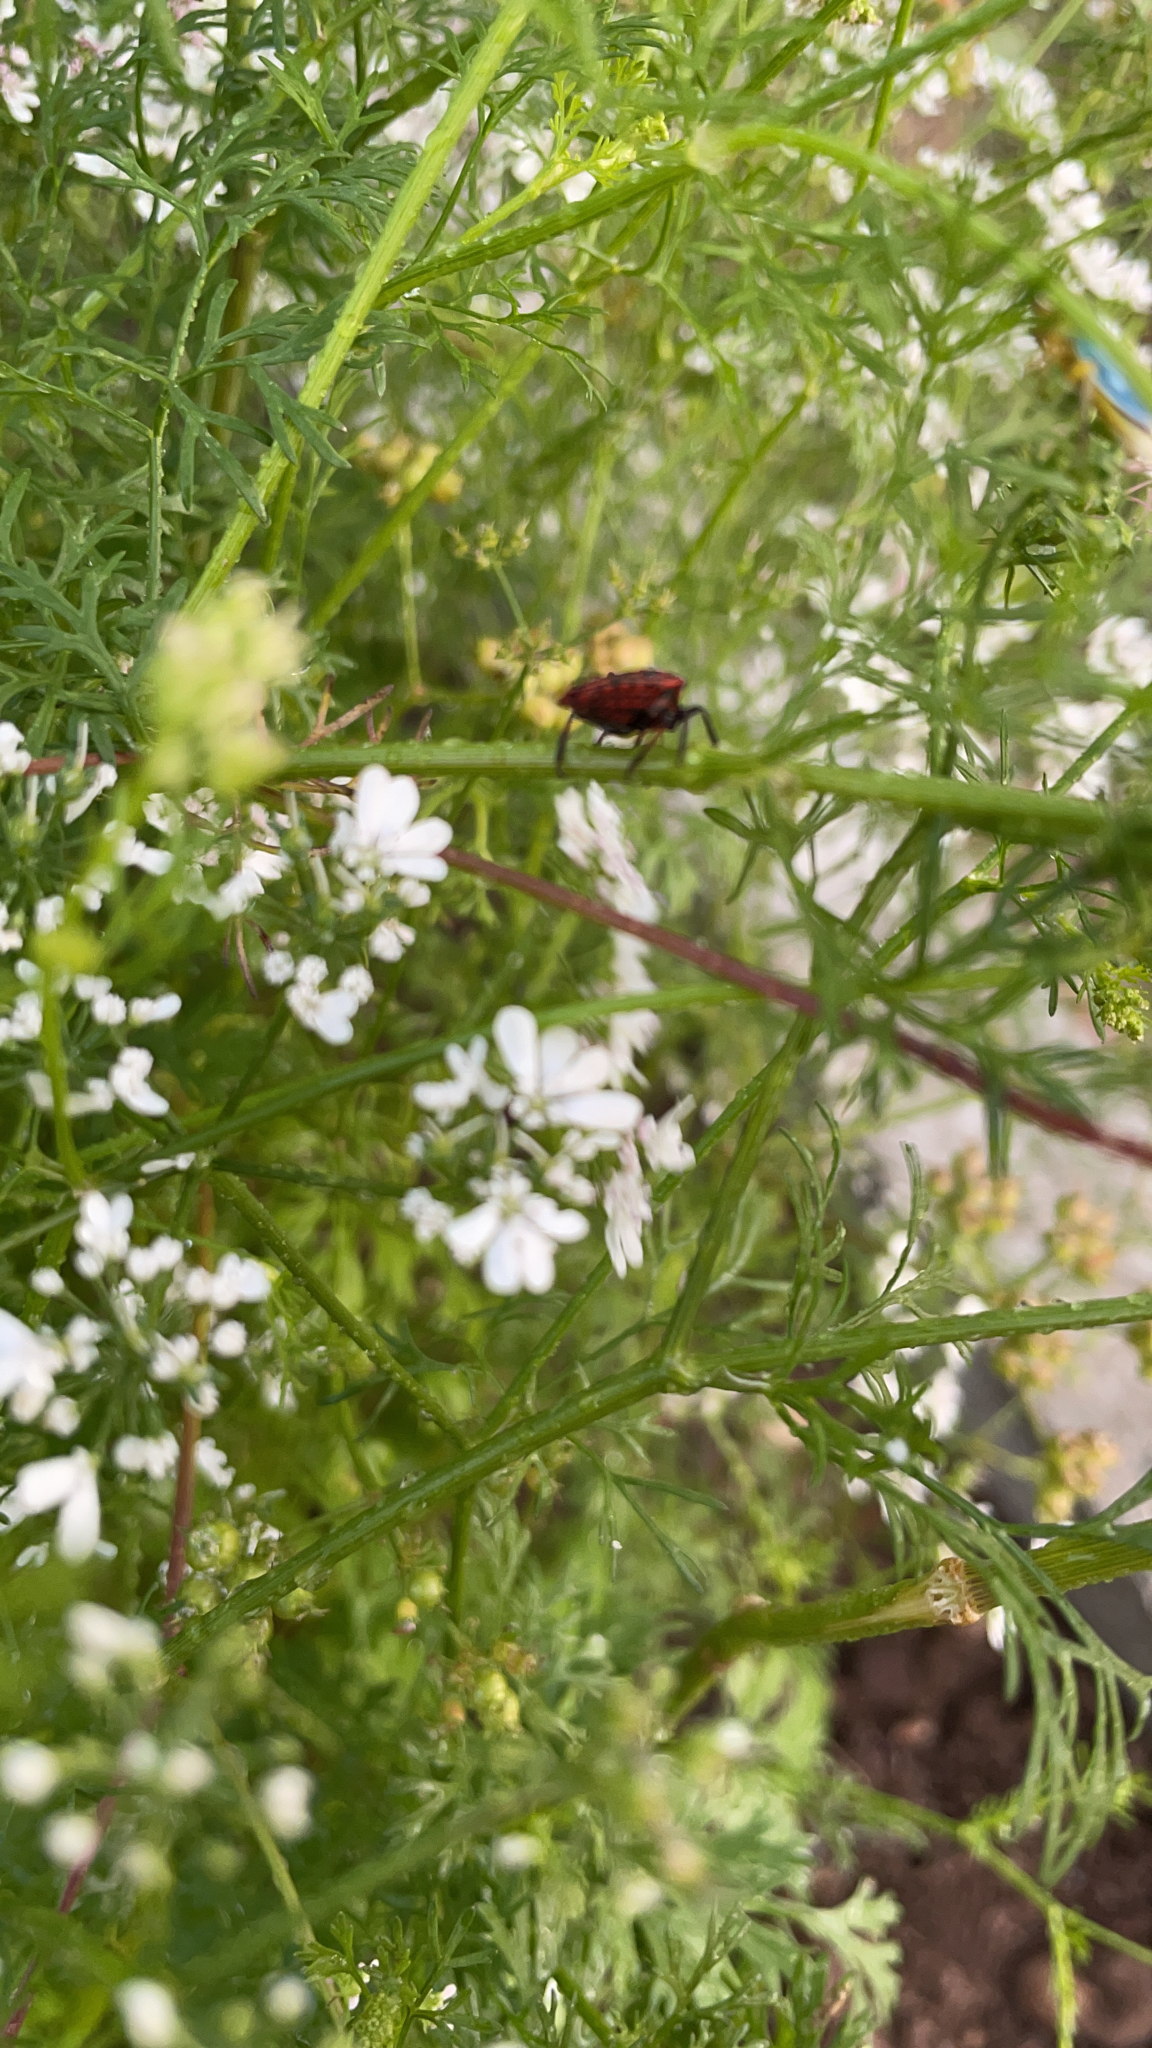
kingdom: Animalia
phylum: Arthropoda
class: Insecta
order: Hemiptera
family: Pentatomidae
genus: Graphosoma
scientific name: Graphosoma italicum
